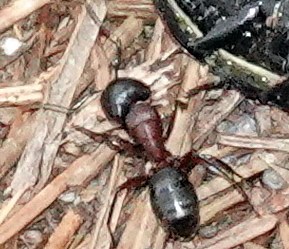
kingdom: Animalia
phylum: Arthropoda
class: Insecta
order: Hymenoptera
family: Formicidae
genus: Camponotus
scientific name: Camponotus novaeboracensis
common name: New york carpenter ant
